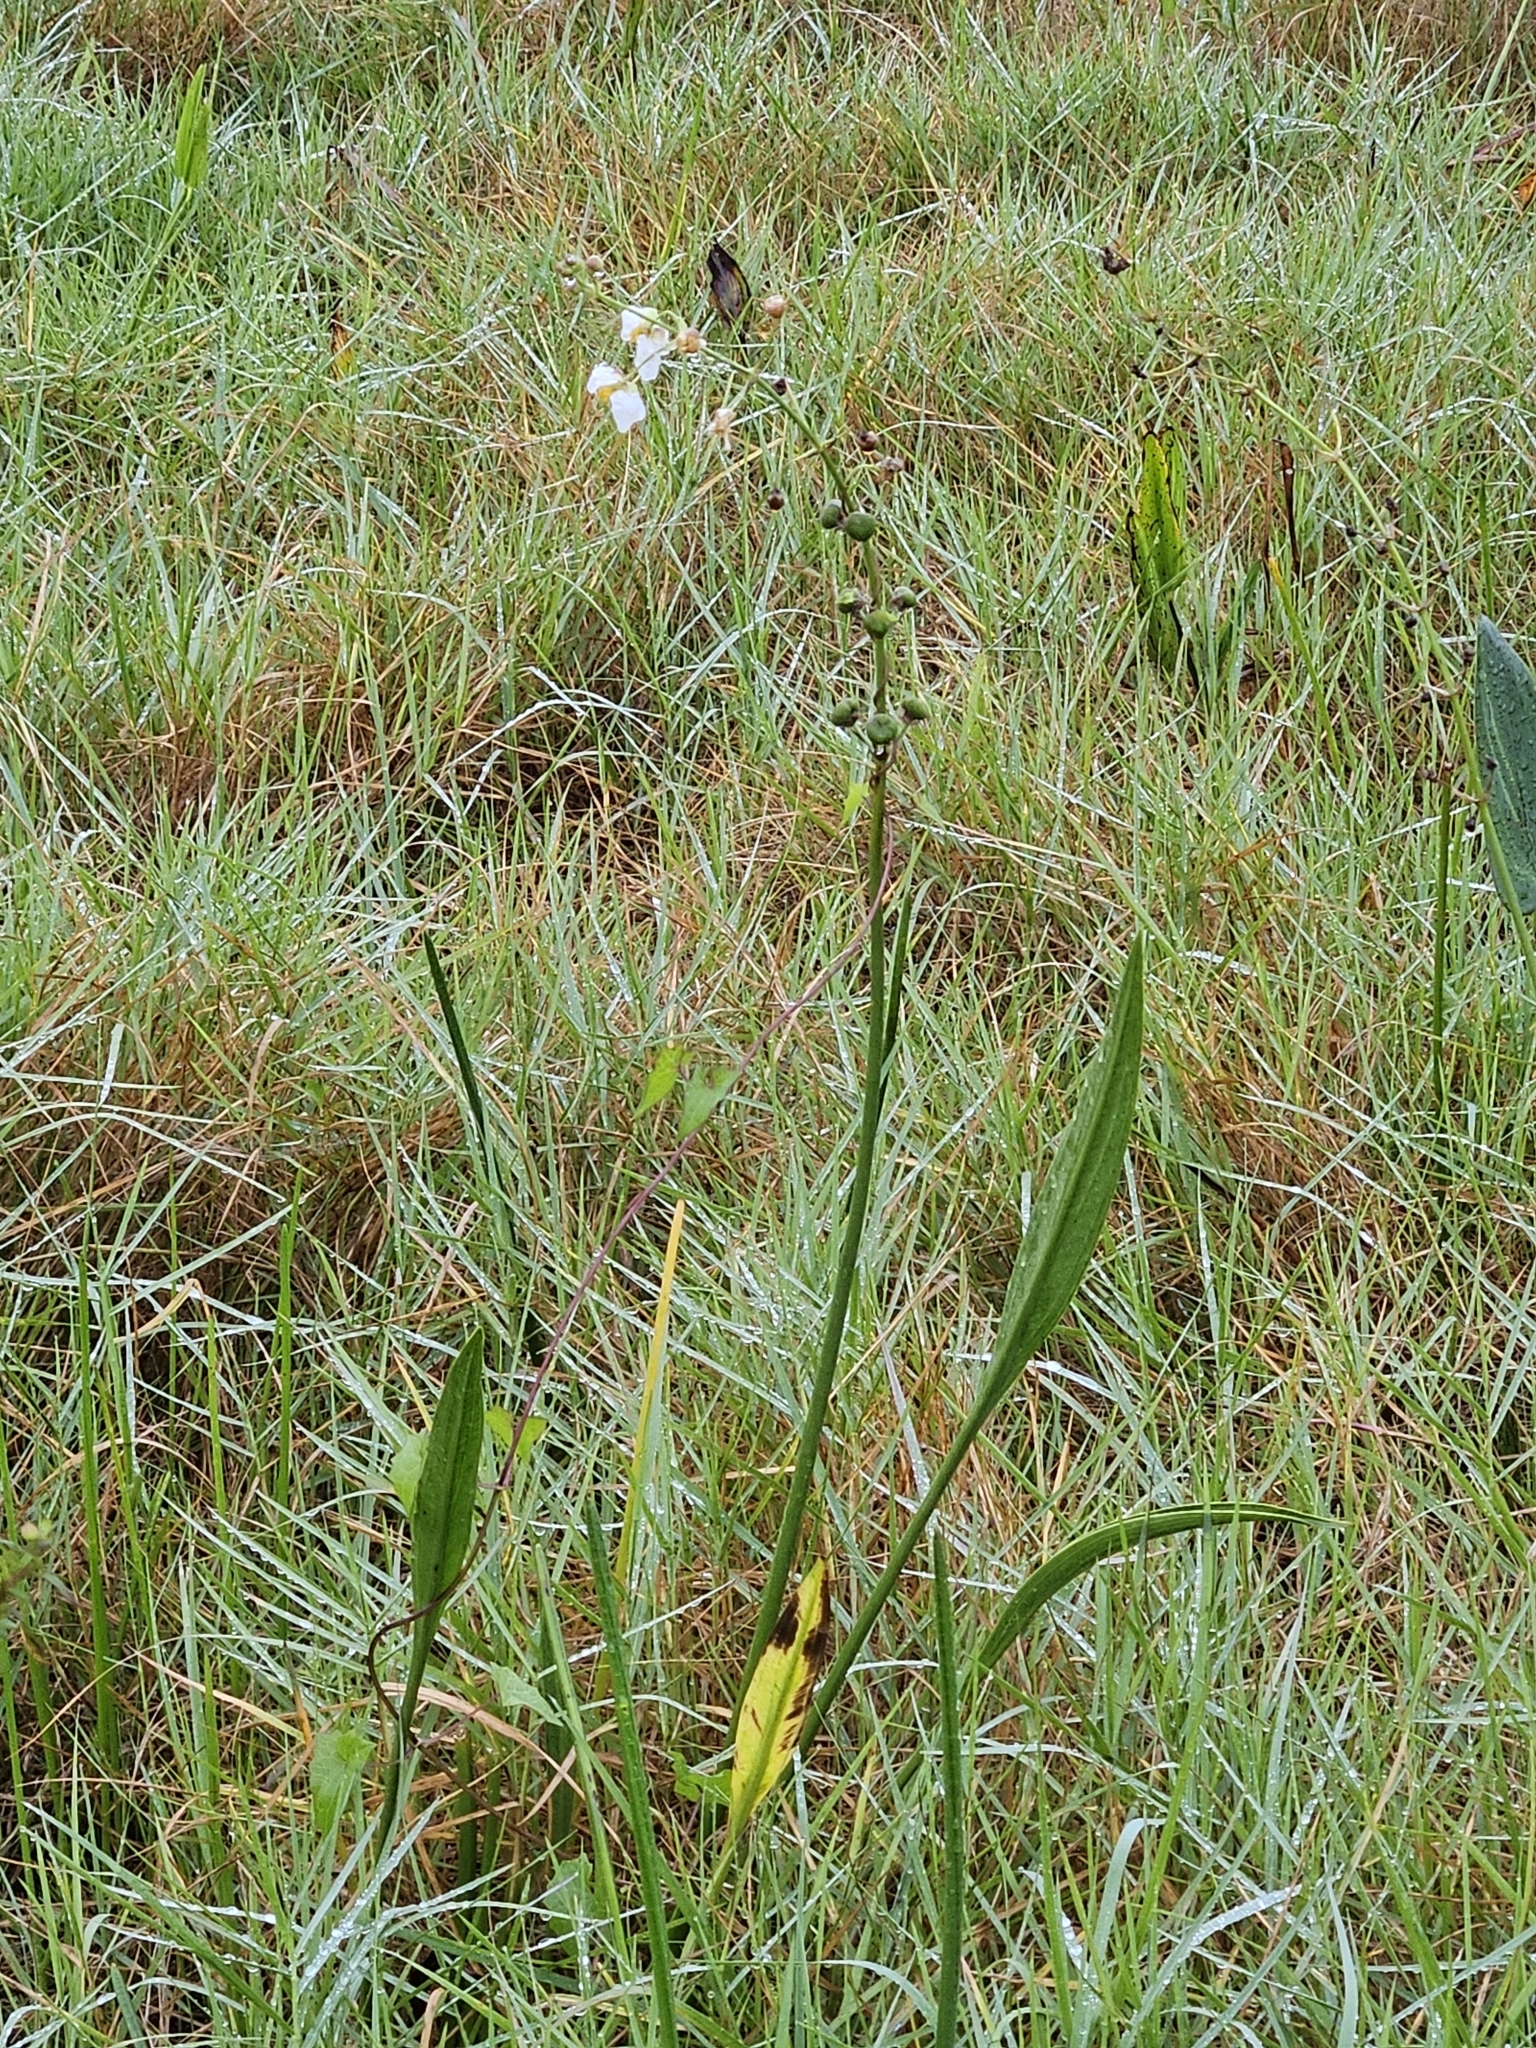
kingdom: Plantae
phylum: Tracheophyta
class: Liliopsida
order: Alismatales
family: Alismataceae
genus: Sagittaria
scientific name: Sagittaria lancifolia
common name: Lance-leaf arrowhead
